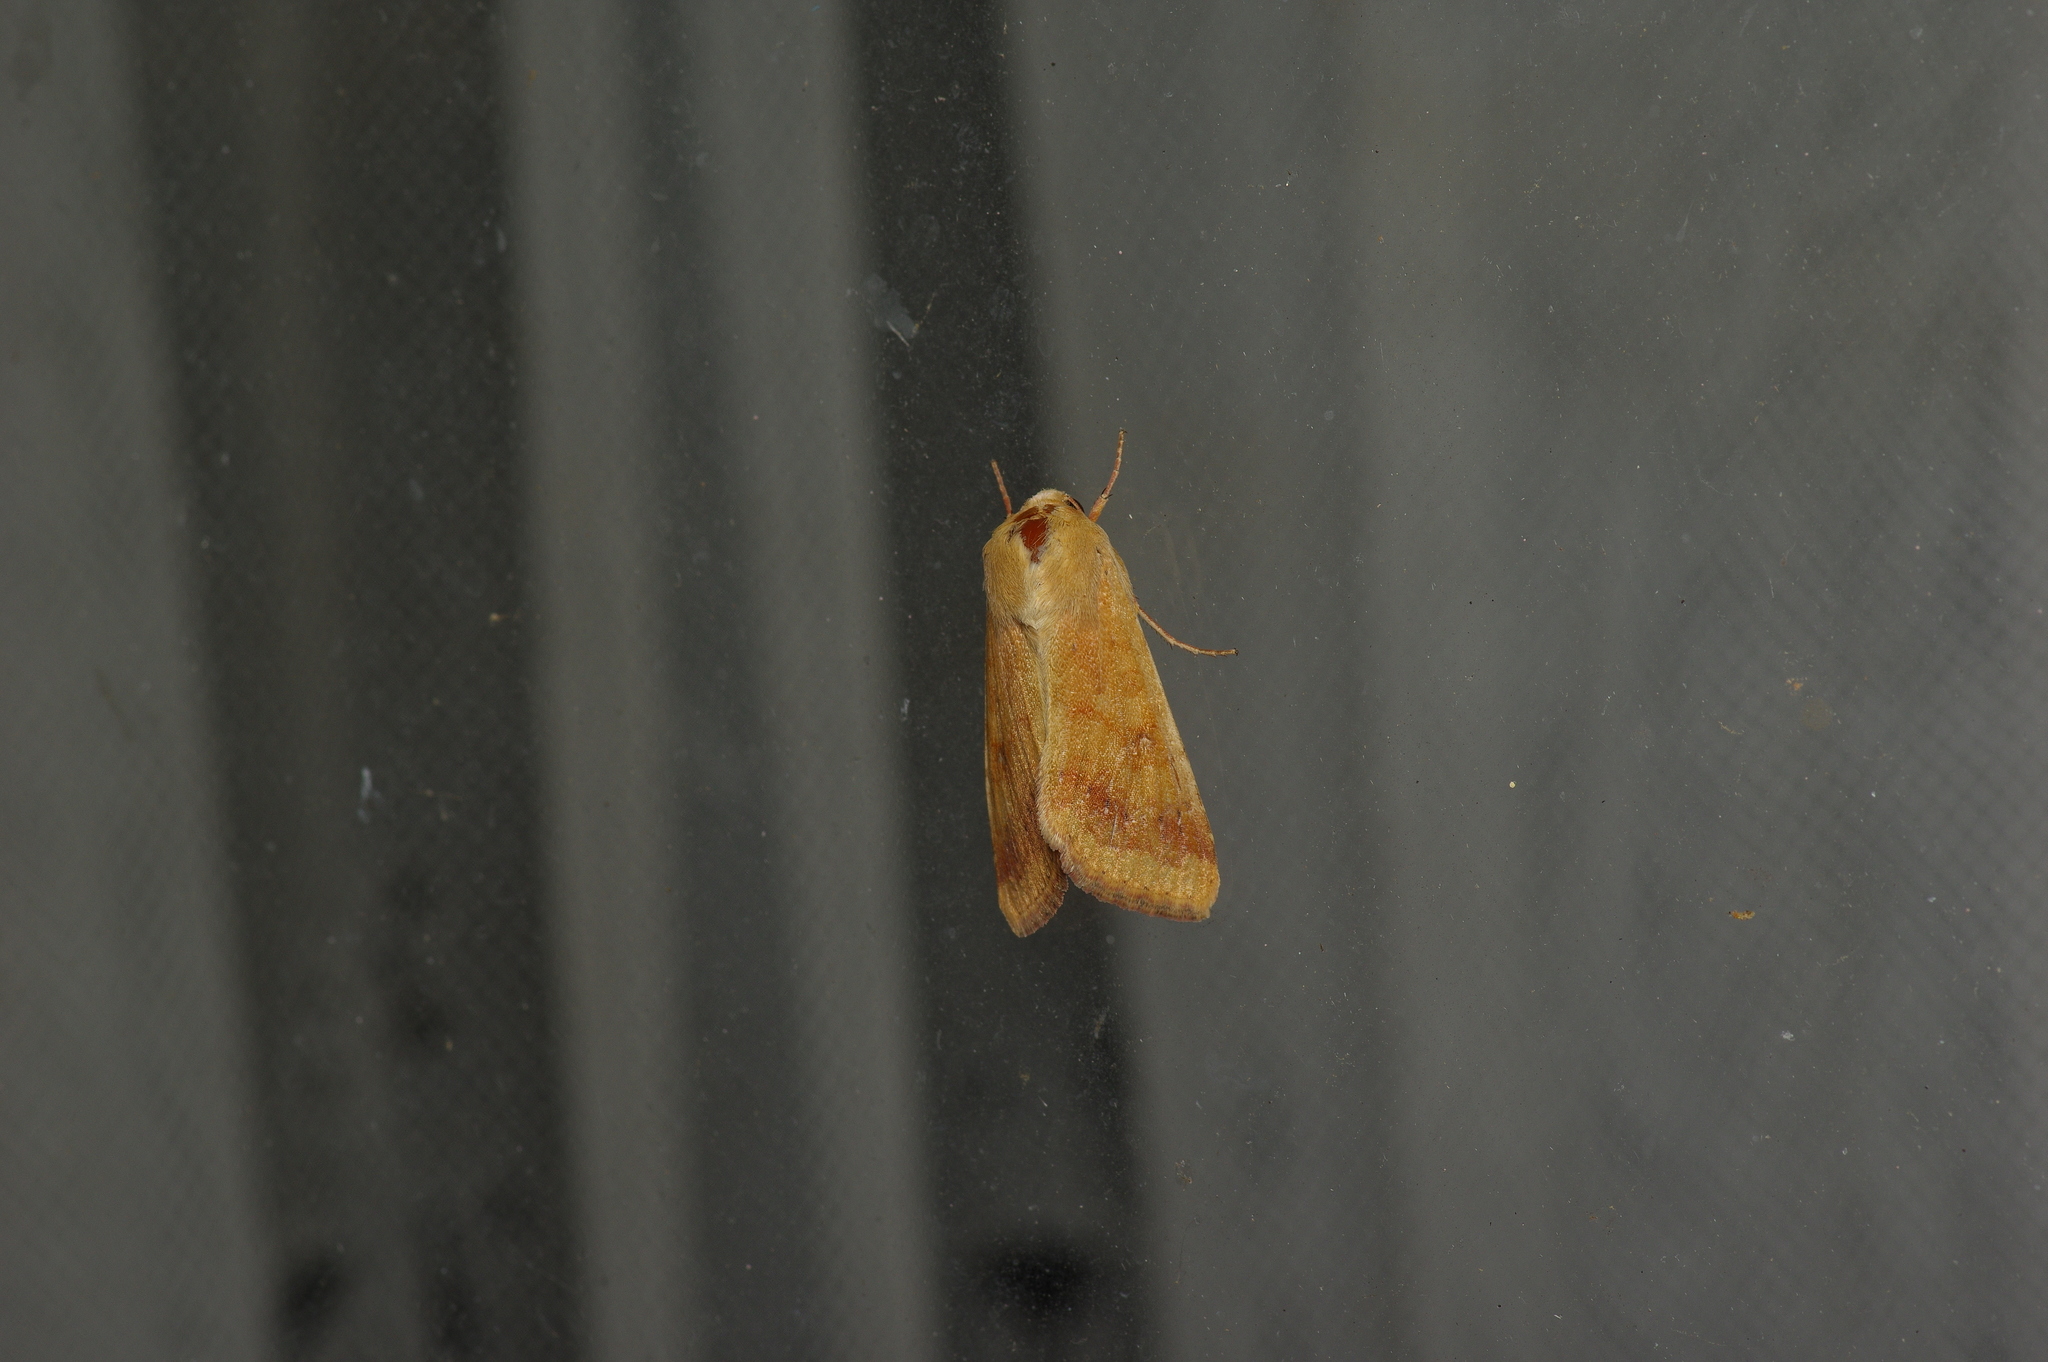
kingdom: Animalia
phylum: Arthropoda
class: Insecta
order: Lepidoptera
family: Noctuidae
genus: Helicoverpa
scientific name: Helicoverpa zea
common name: Bollworm
